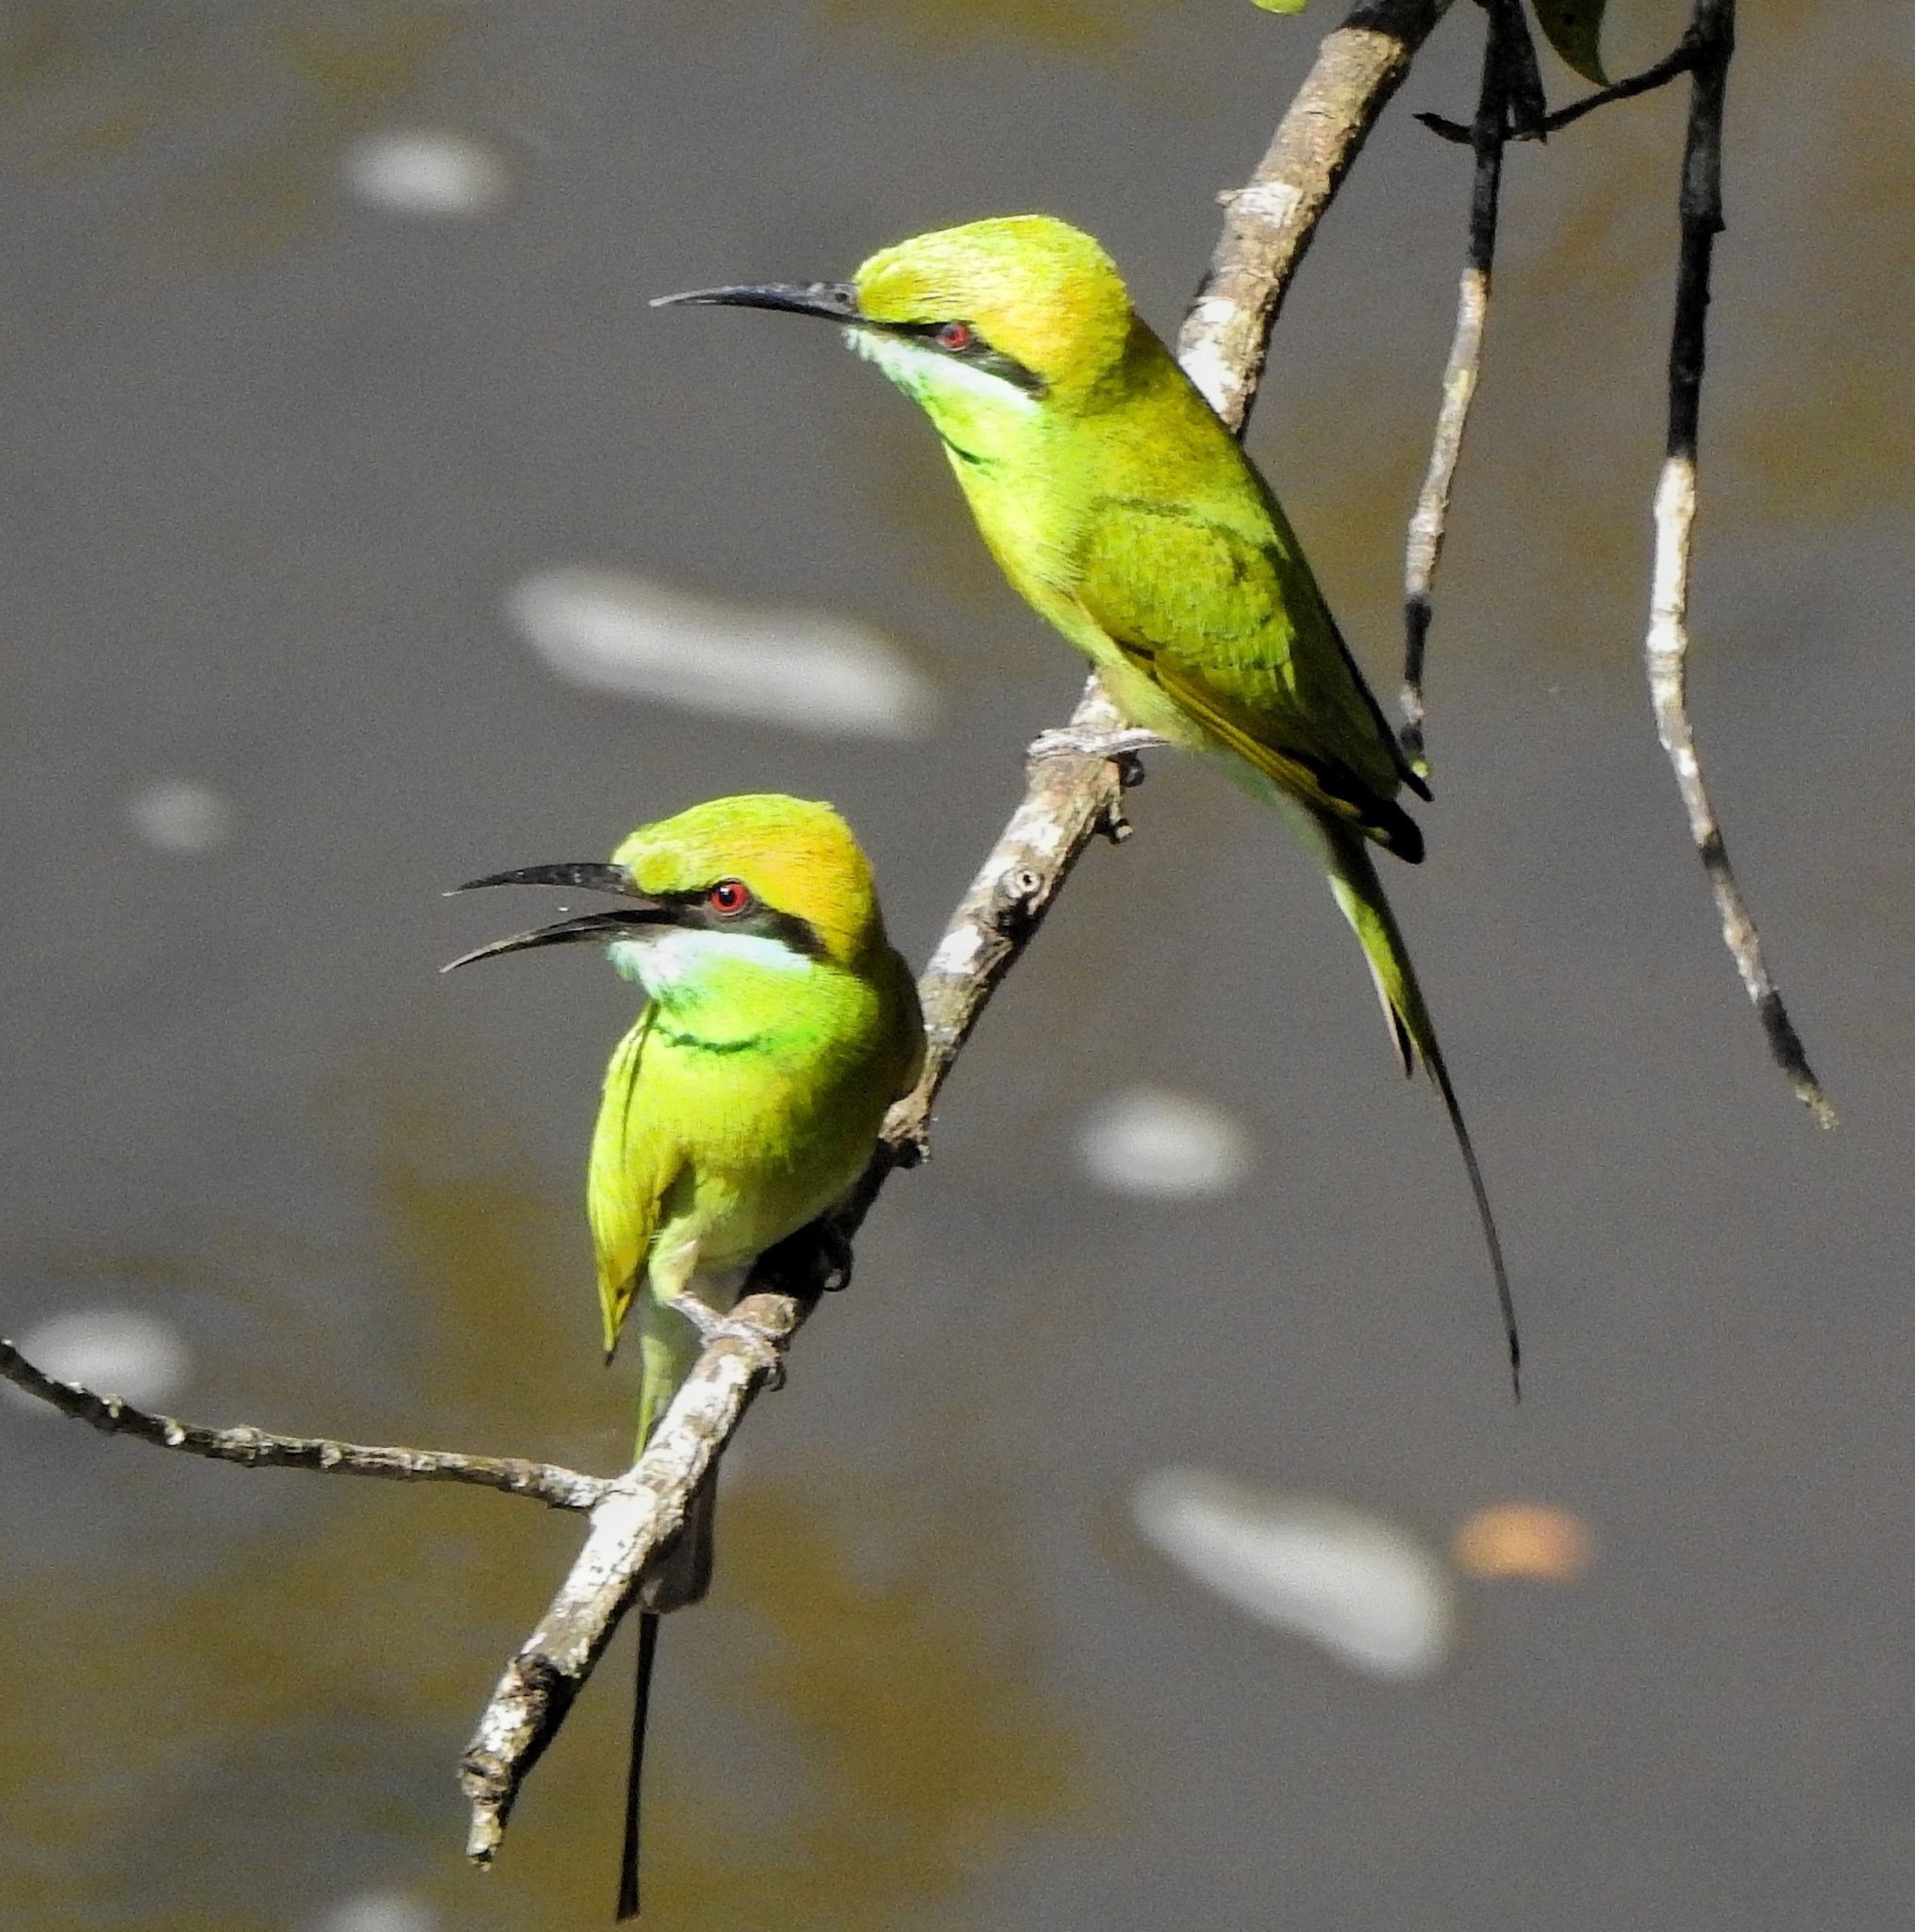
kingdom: Animalia
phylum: Chordata
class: Aves
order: Coraciiformes
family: Meropidae
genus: Merops
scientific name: Merops orientalis
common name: Green bee-eater
